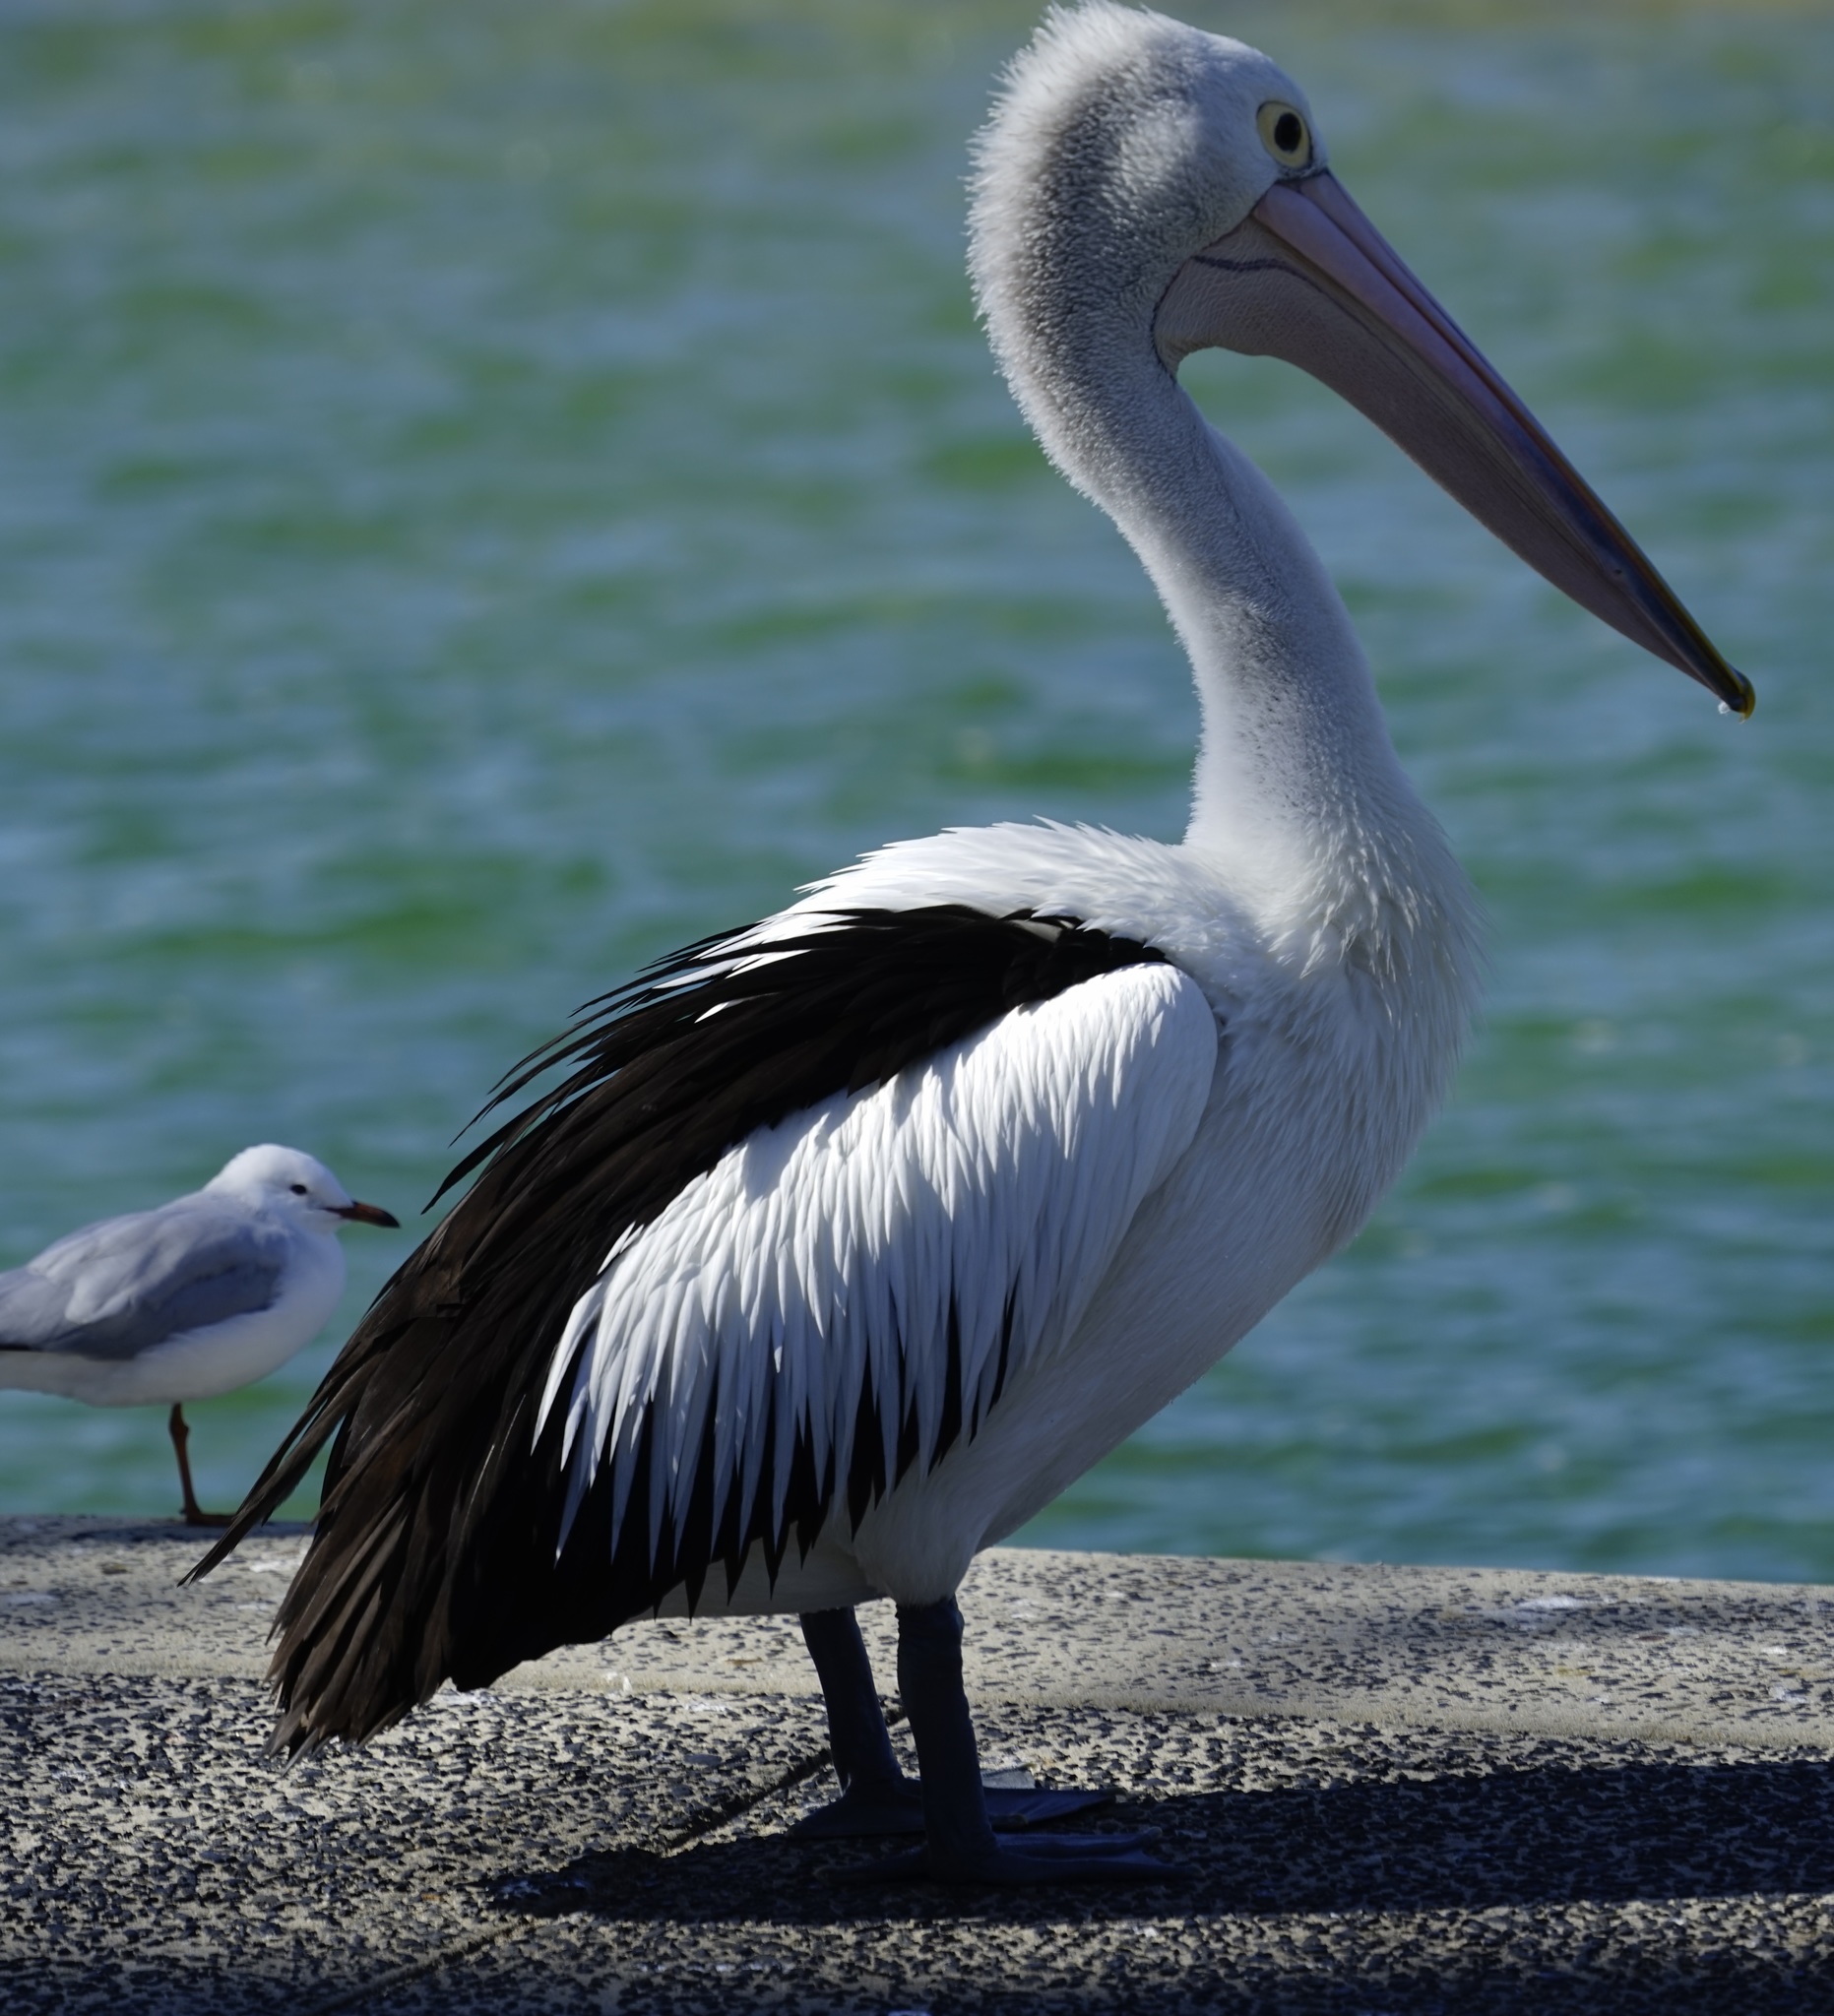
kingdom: Animalia
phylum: Chordata
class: Aves
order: Pelecaniformes
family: Pelecanidae
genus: Pelecanus
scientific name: Pelecanus conspicillatus
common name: Australian pelican
